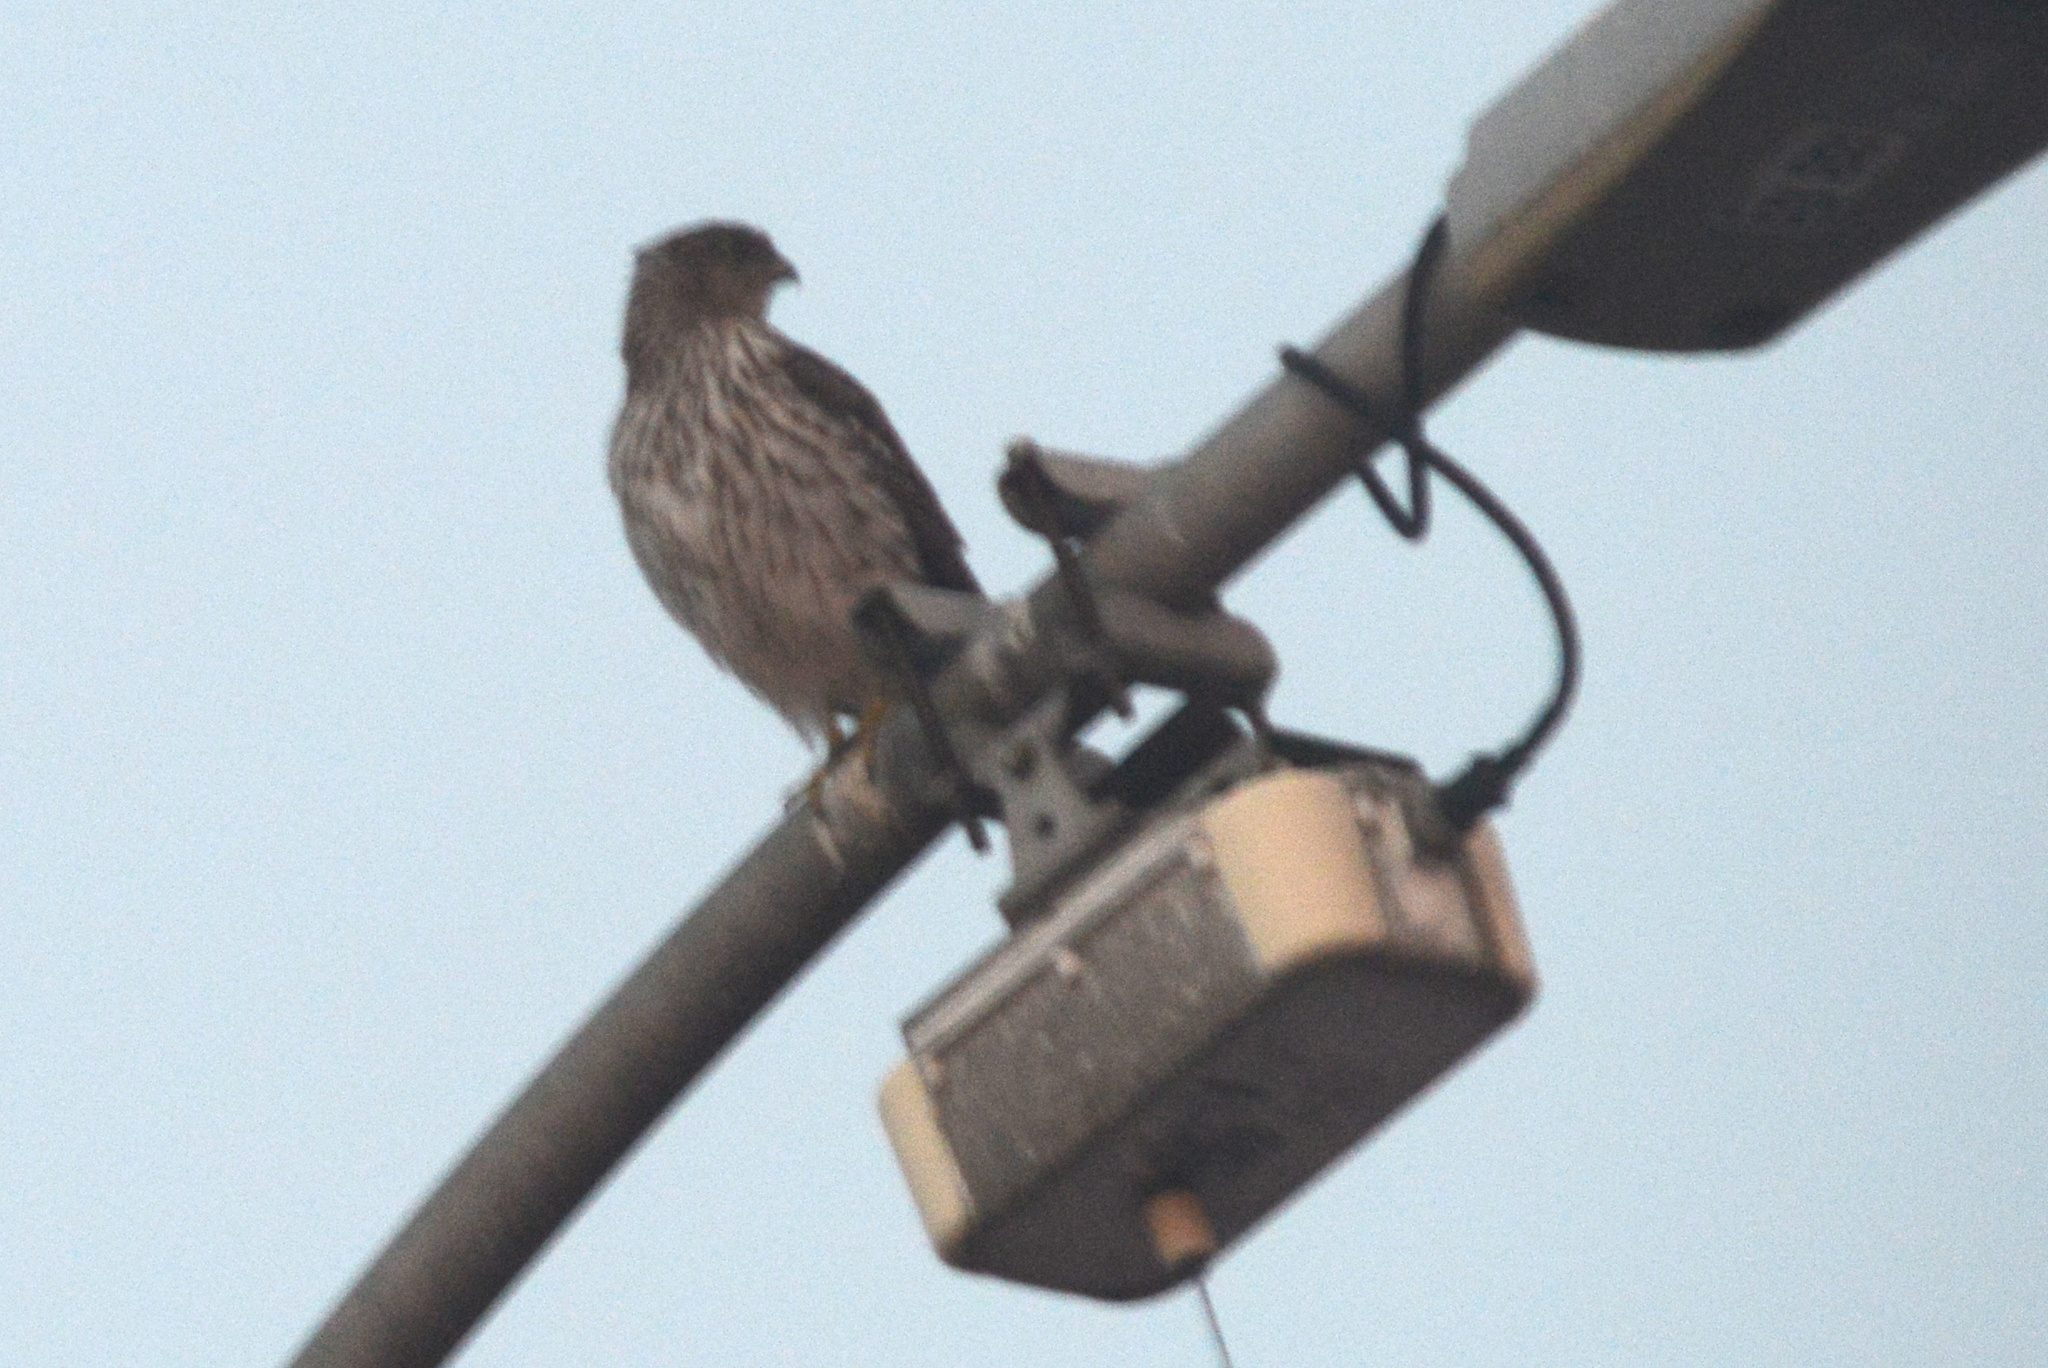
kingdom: Animalia
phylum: Chordata
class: Aves
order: Accipitriformes
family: Accipitridae
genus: Accipiter
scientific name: Accipiter cooperii
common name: Cooper's hawk
